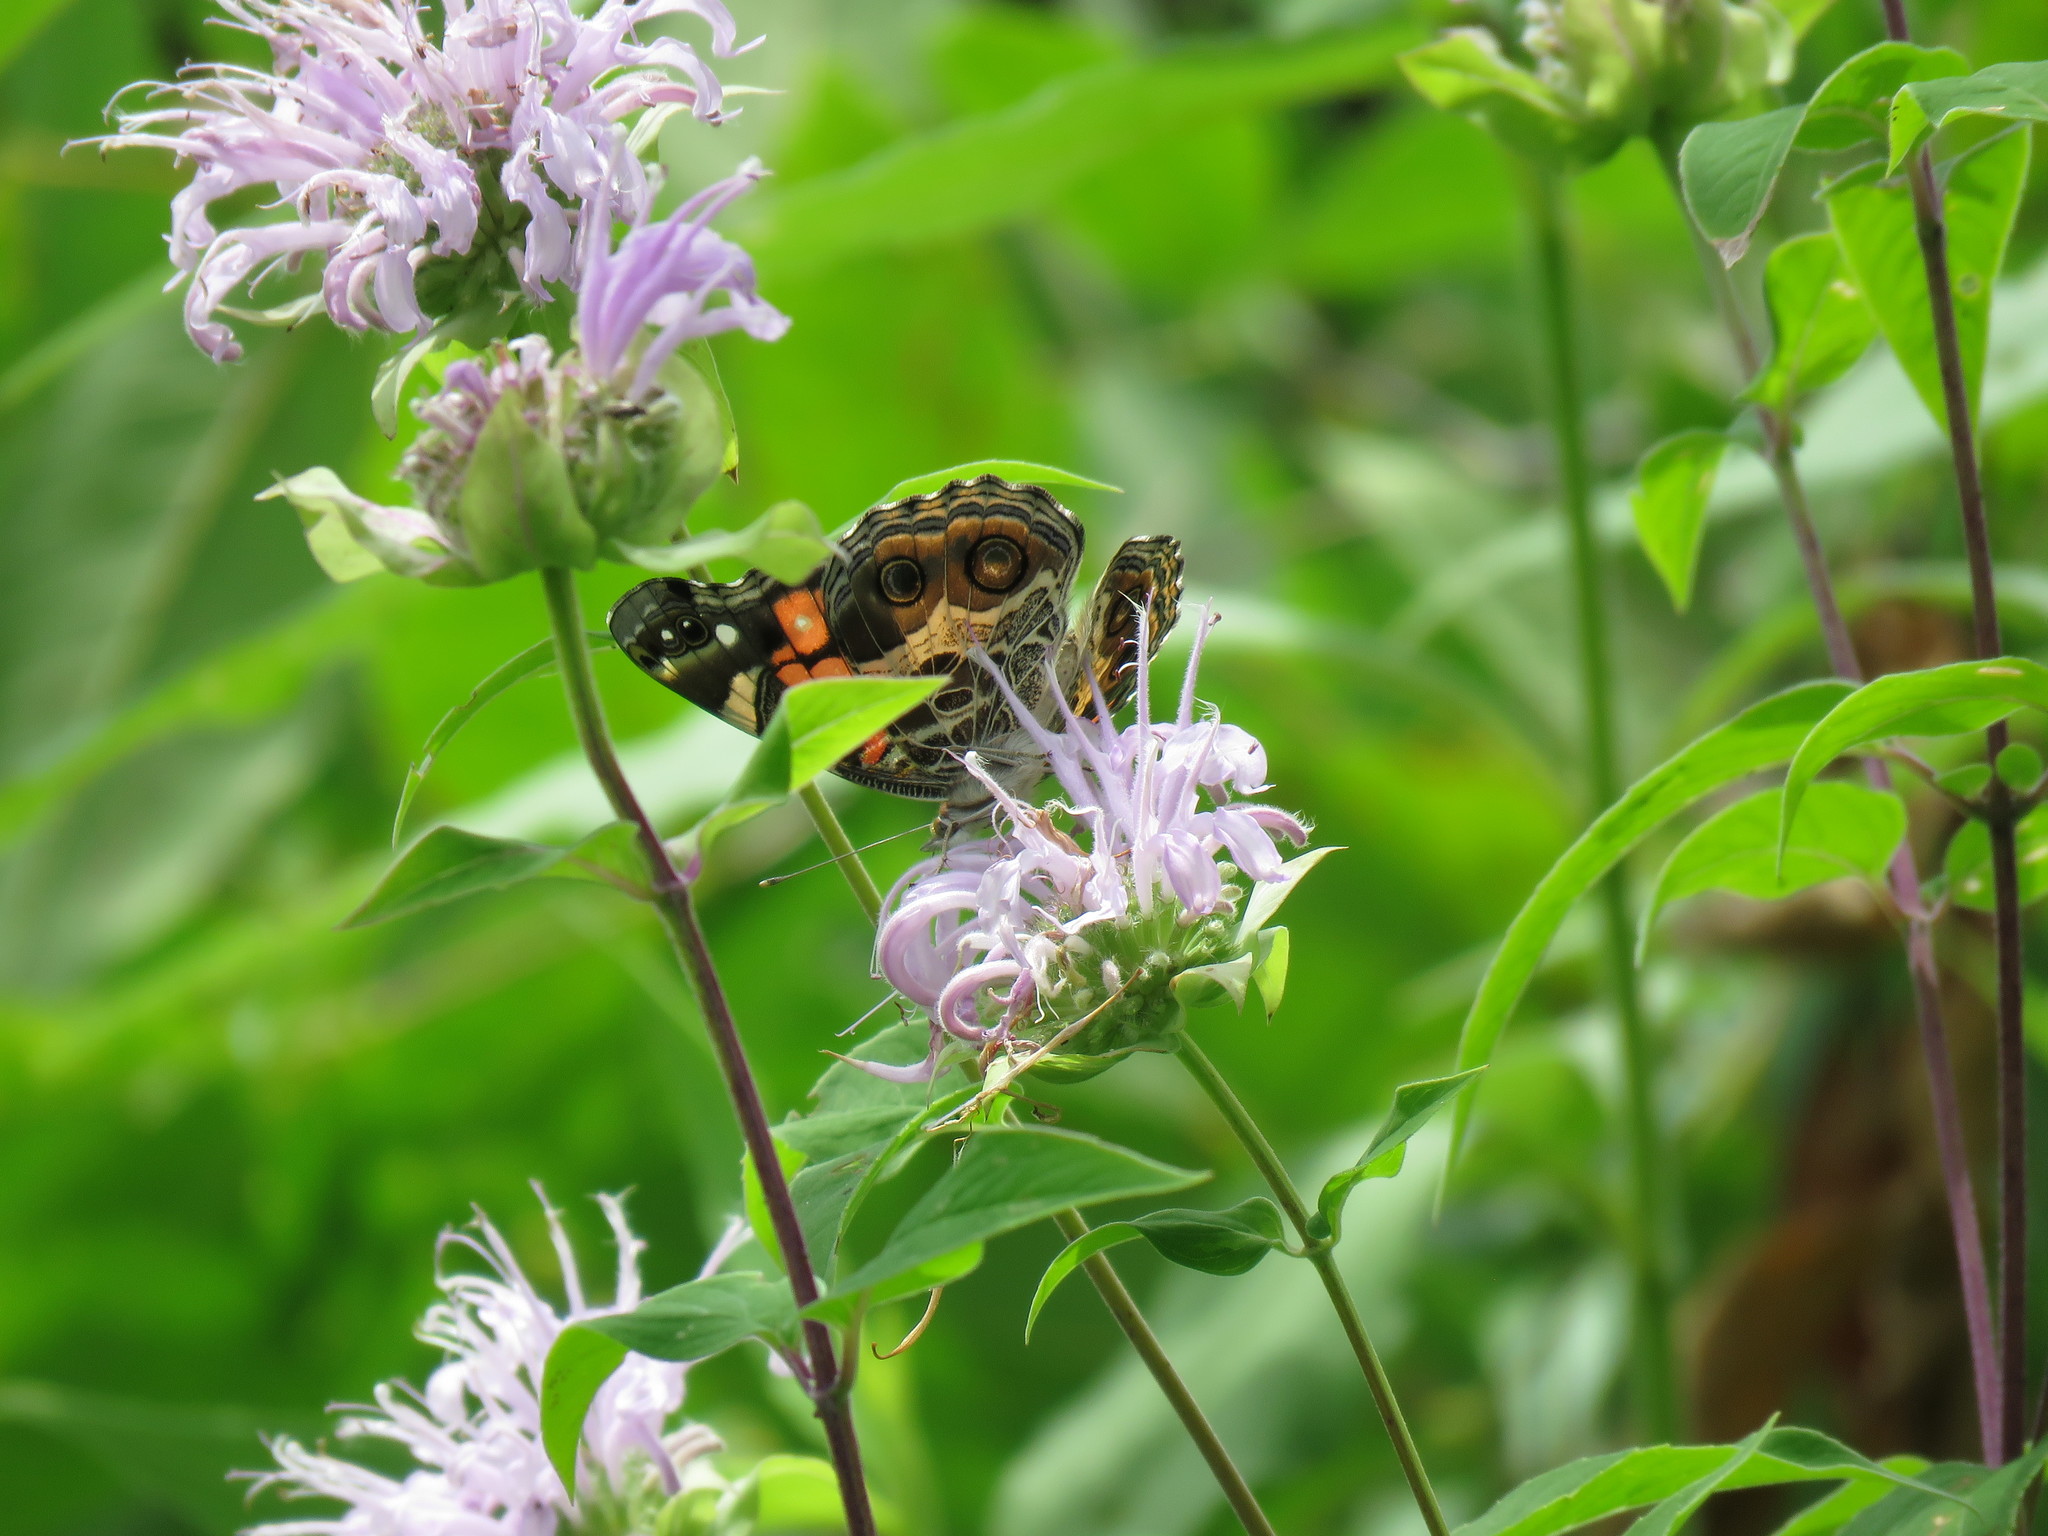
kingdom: Animalia
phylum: Arthropoda
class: Insecta
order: Lepidoptera
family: Nymphalidae
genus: Vanessa
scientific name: Vanessa virginiensis
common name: American lady
